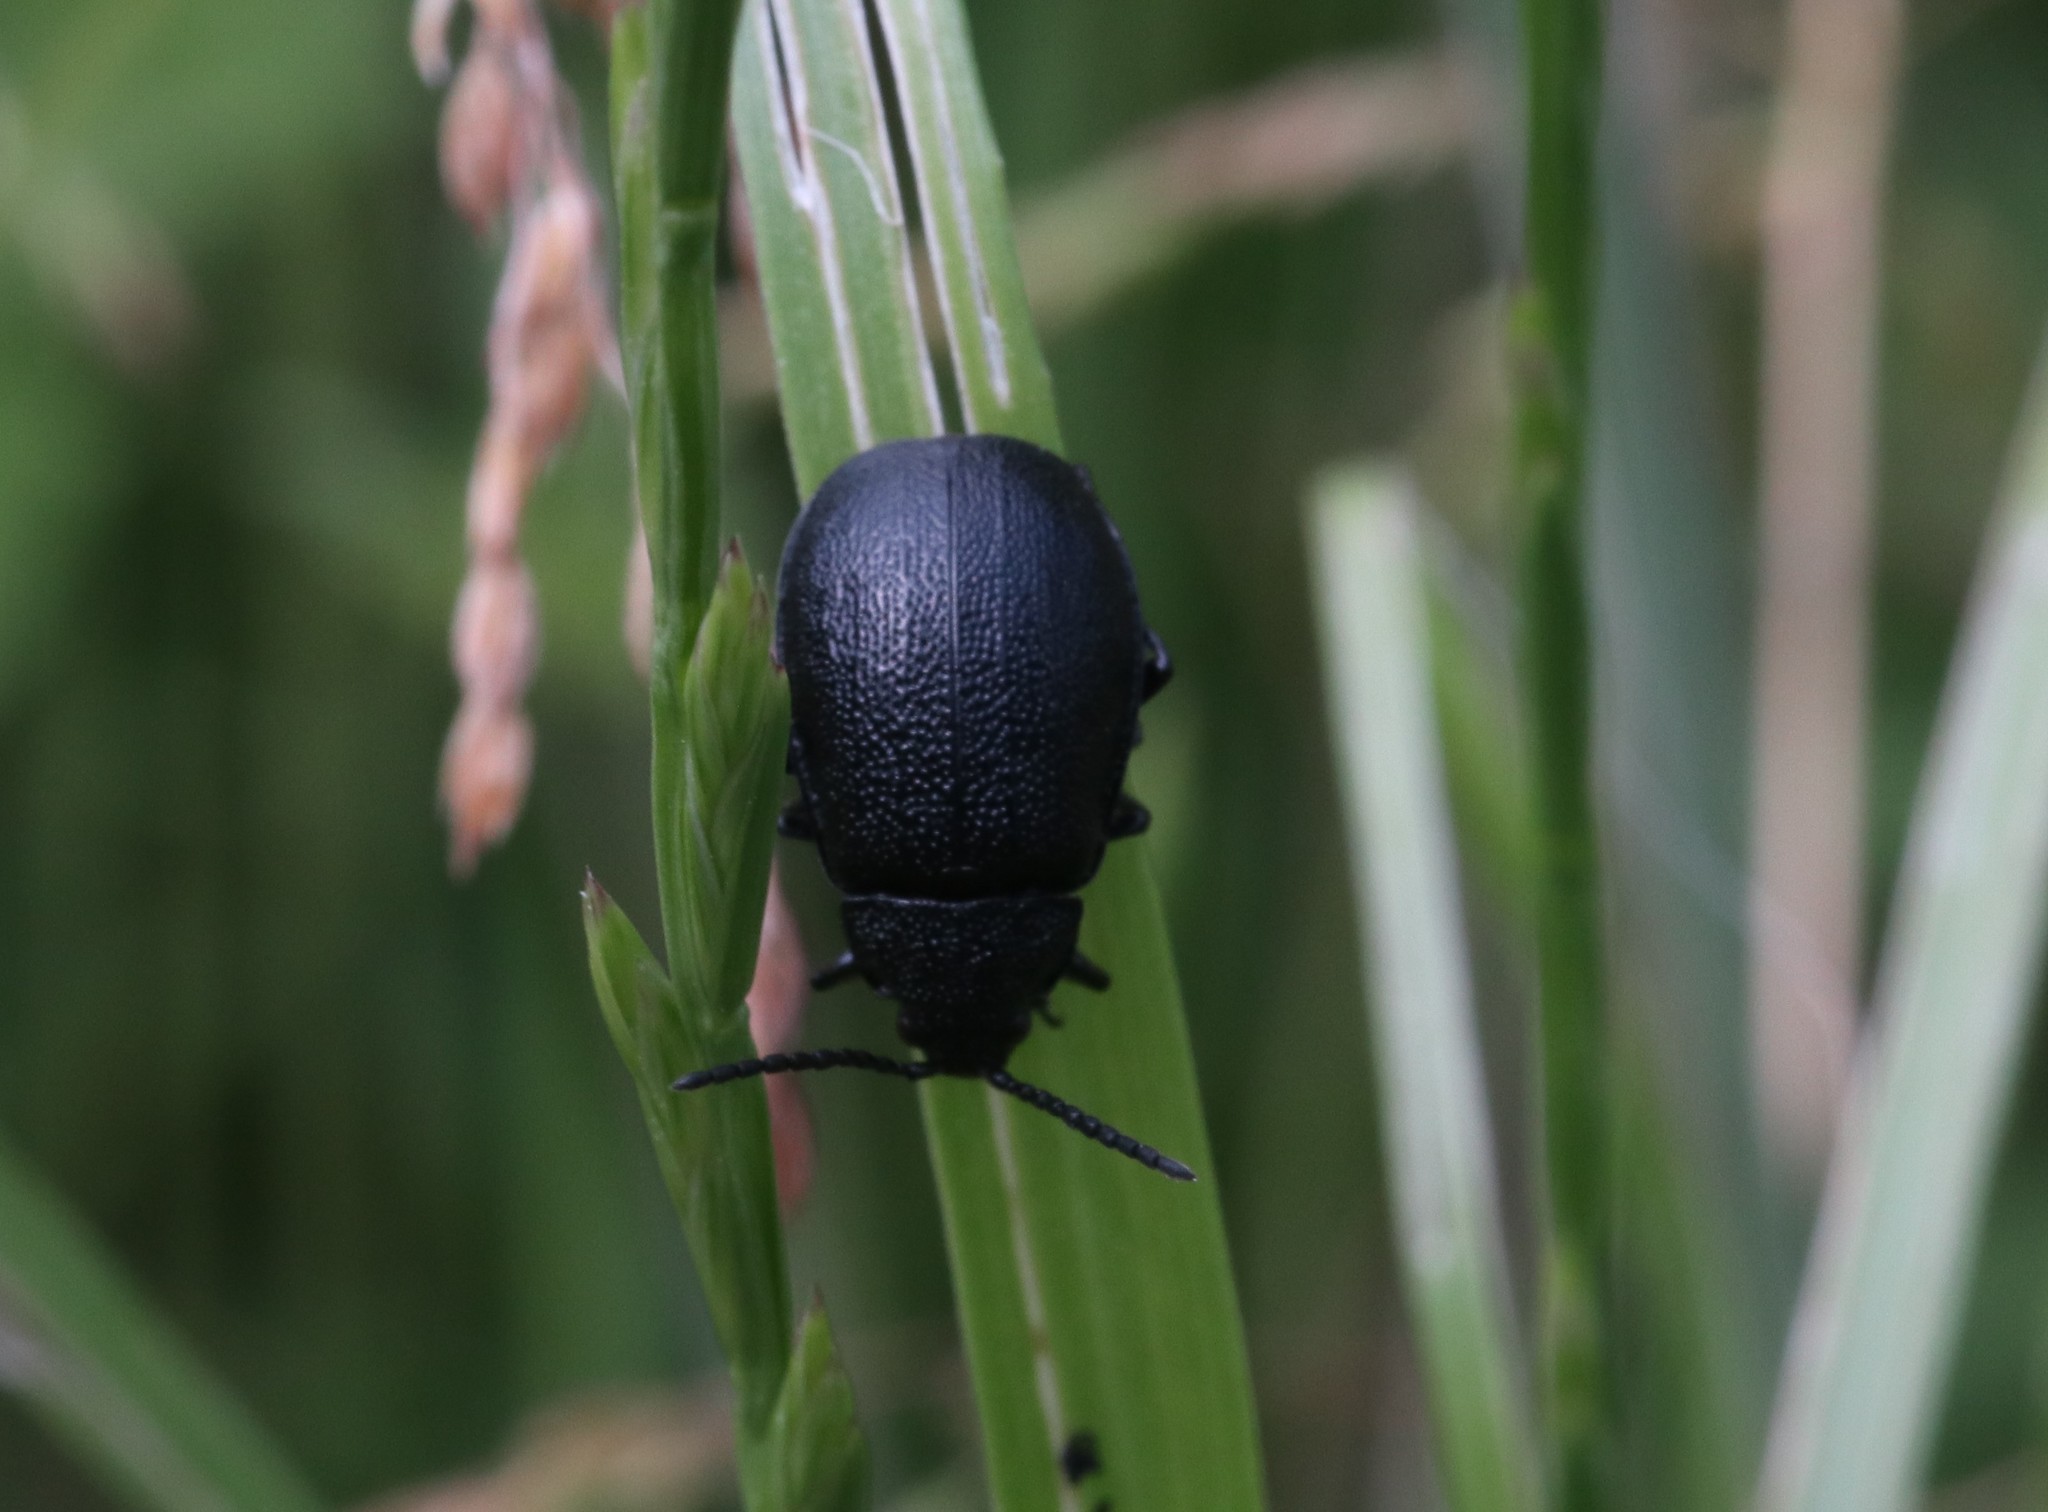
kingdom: Animalia
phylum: Arthropoda
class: Insecta
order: Coleoptera
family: Chrysomelidae
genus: Galeruca
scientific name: Galeruca tanaceti
